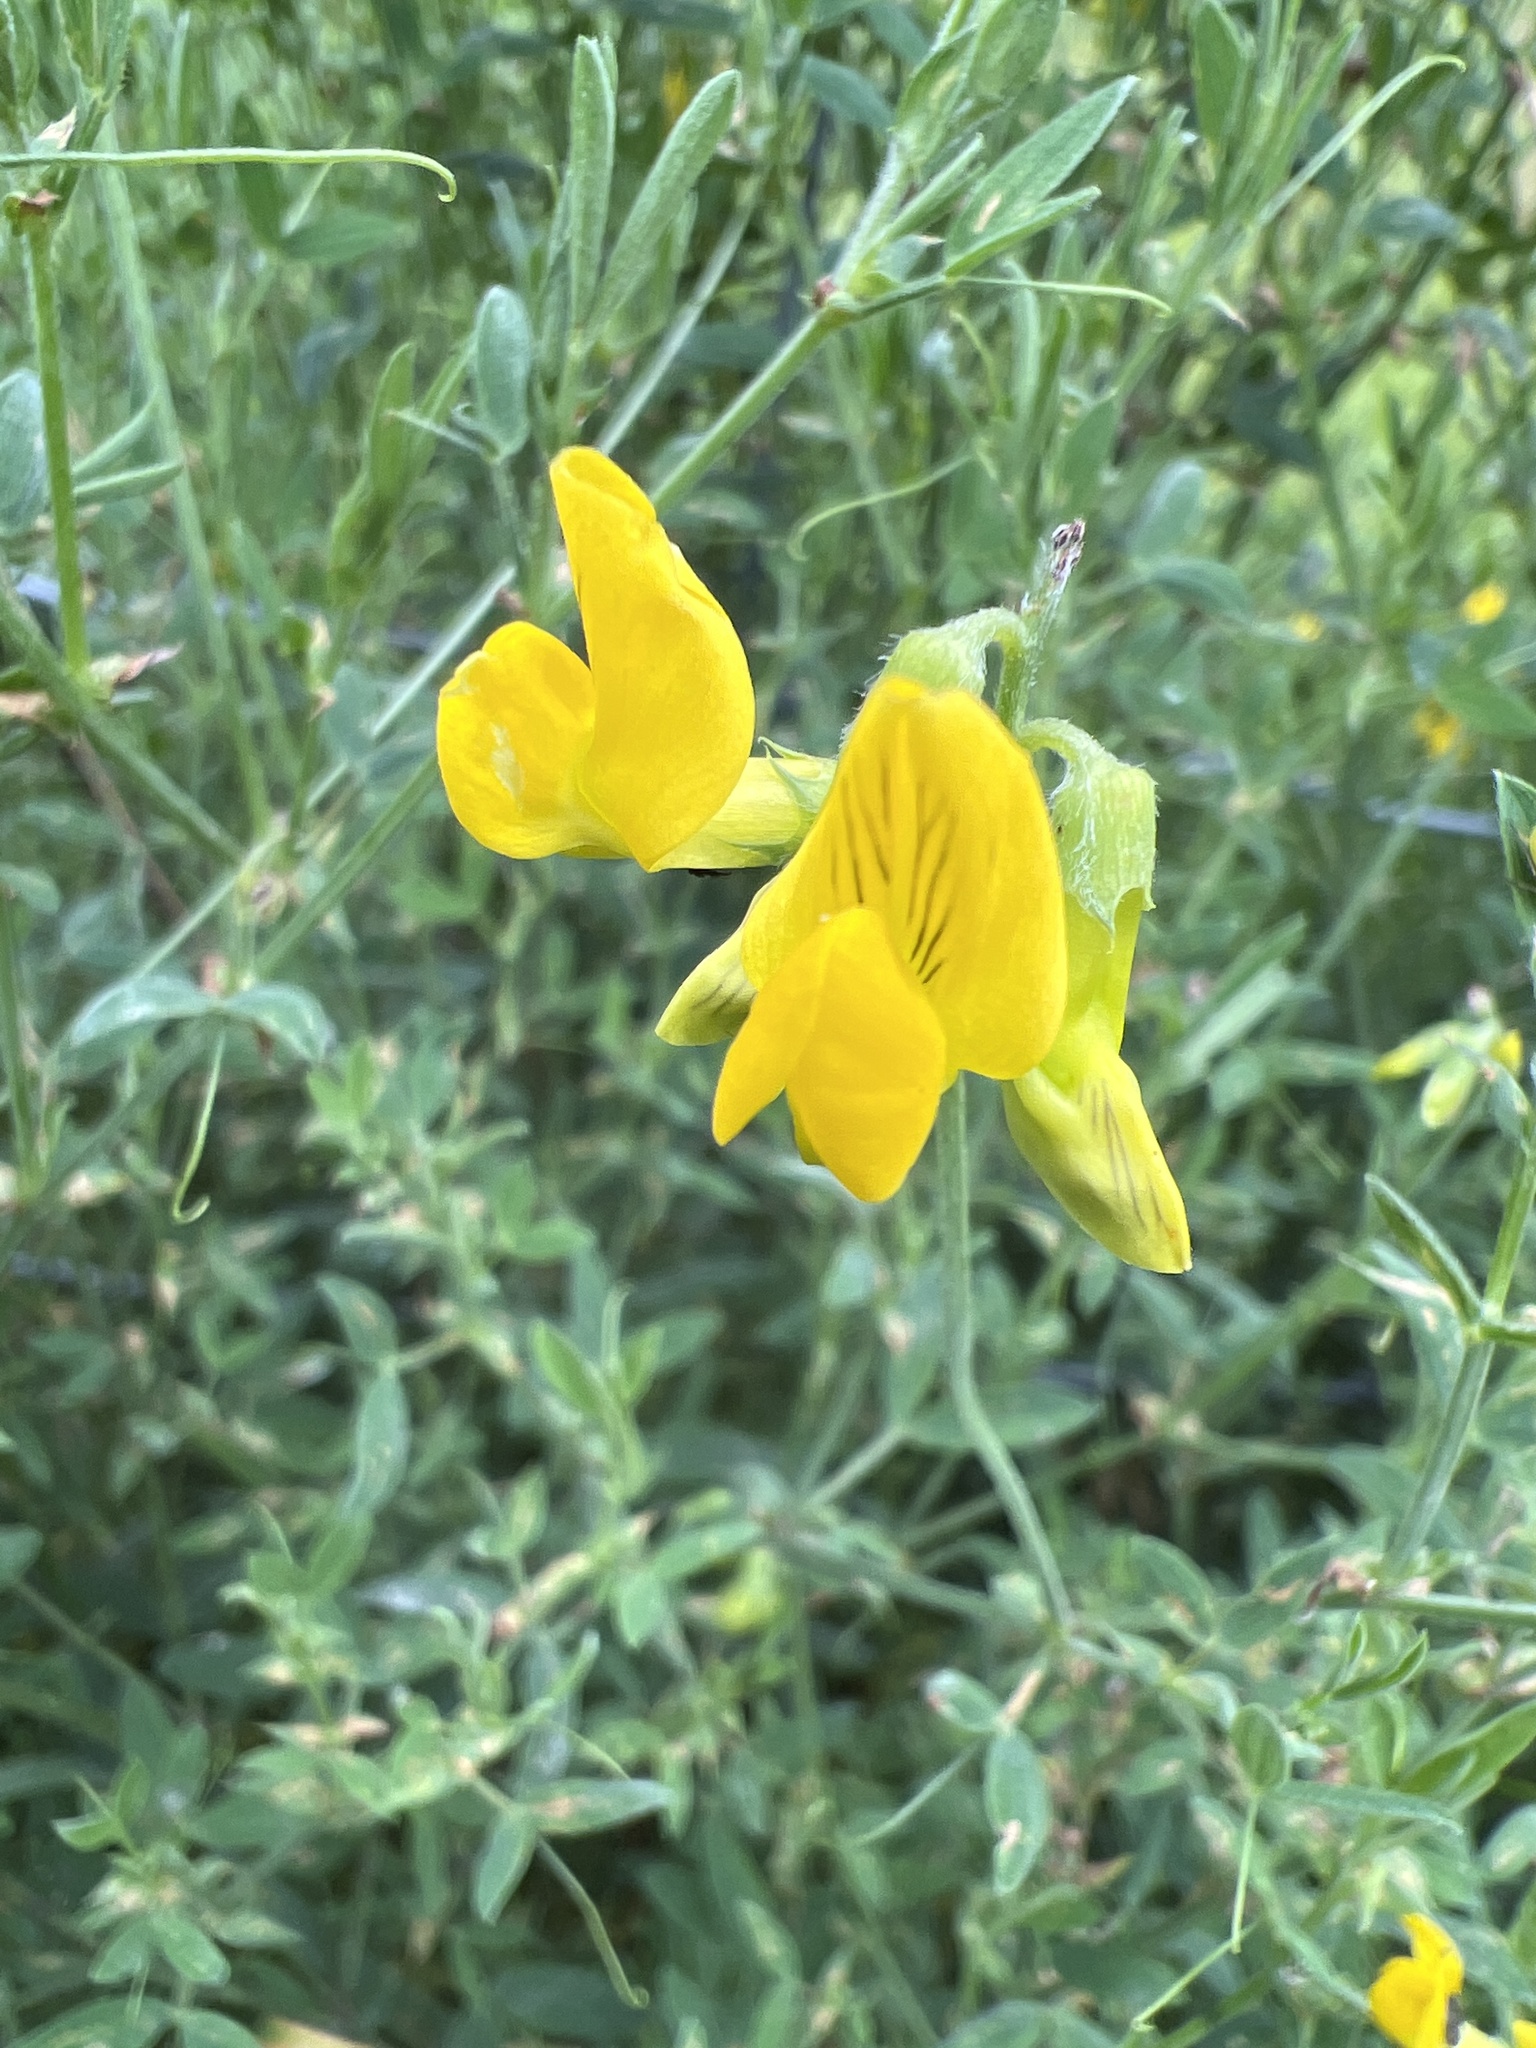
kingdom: Plantae
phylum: Tracheophyta
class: Magnoliopsida
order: Fabales
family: Fabaceae
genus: Lathyrus
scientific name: Lathyrus pratensis
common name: Meadow vetchling
